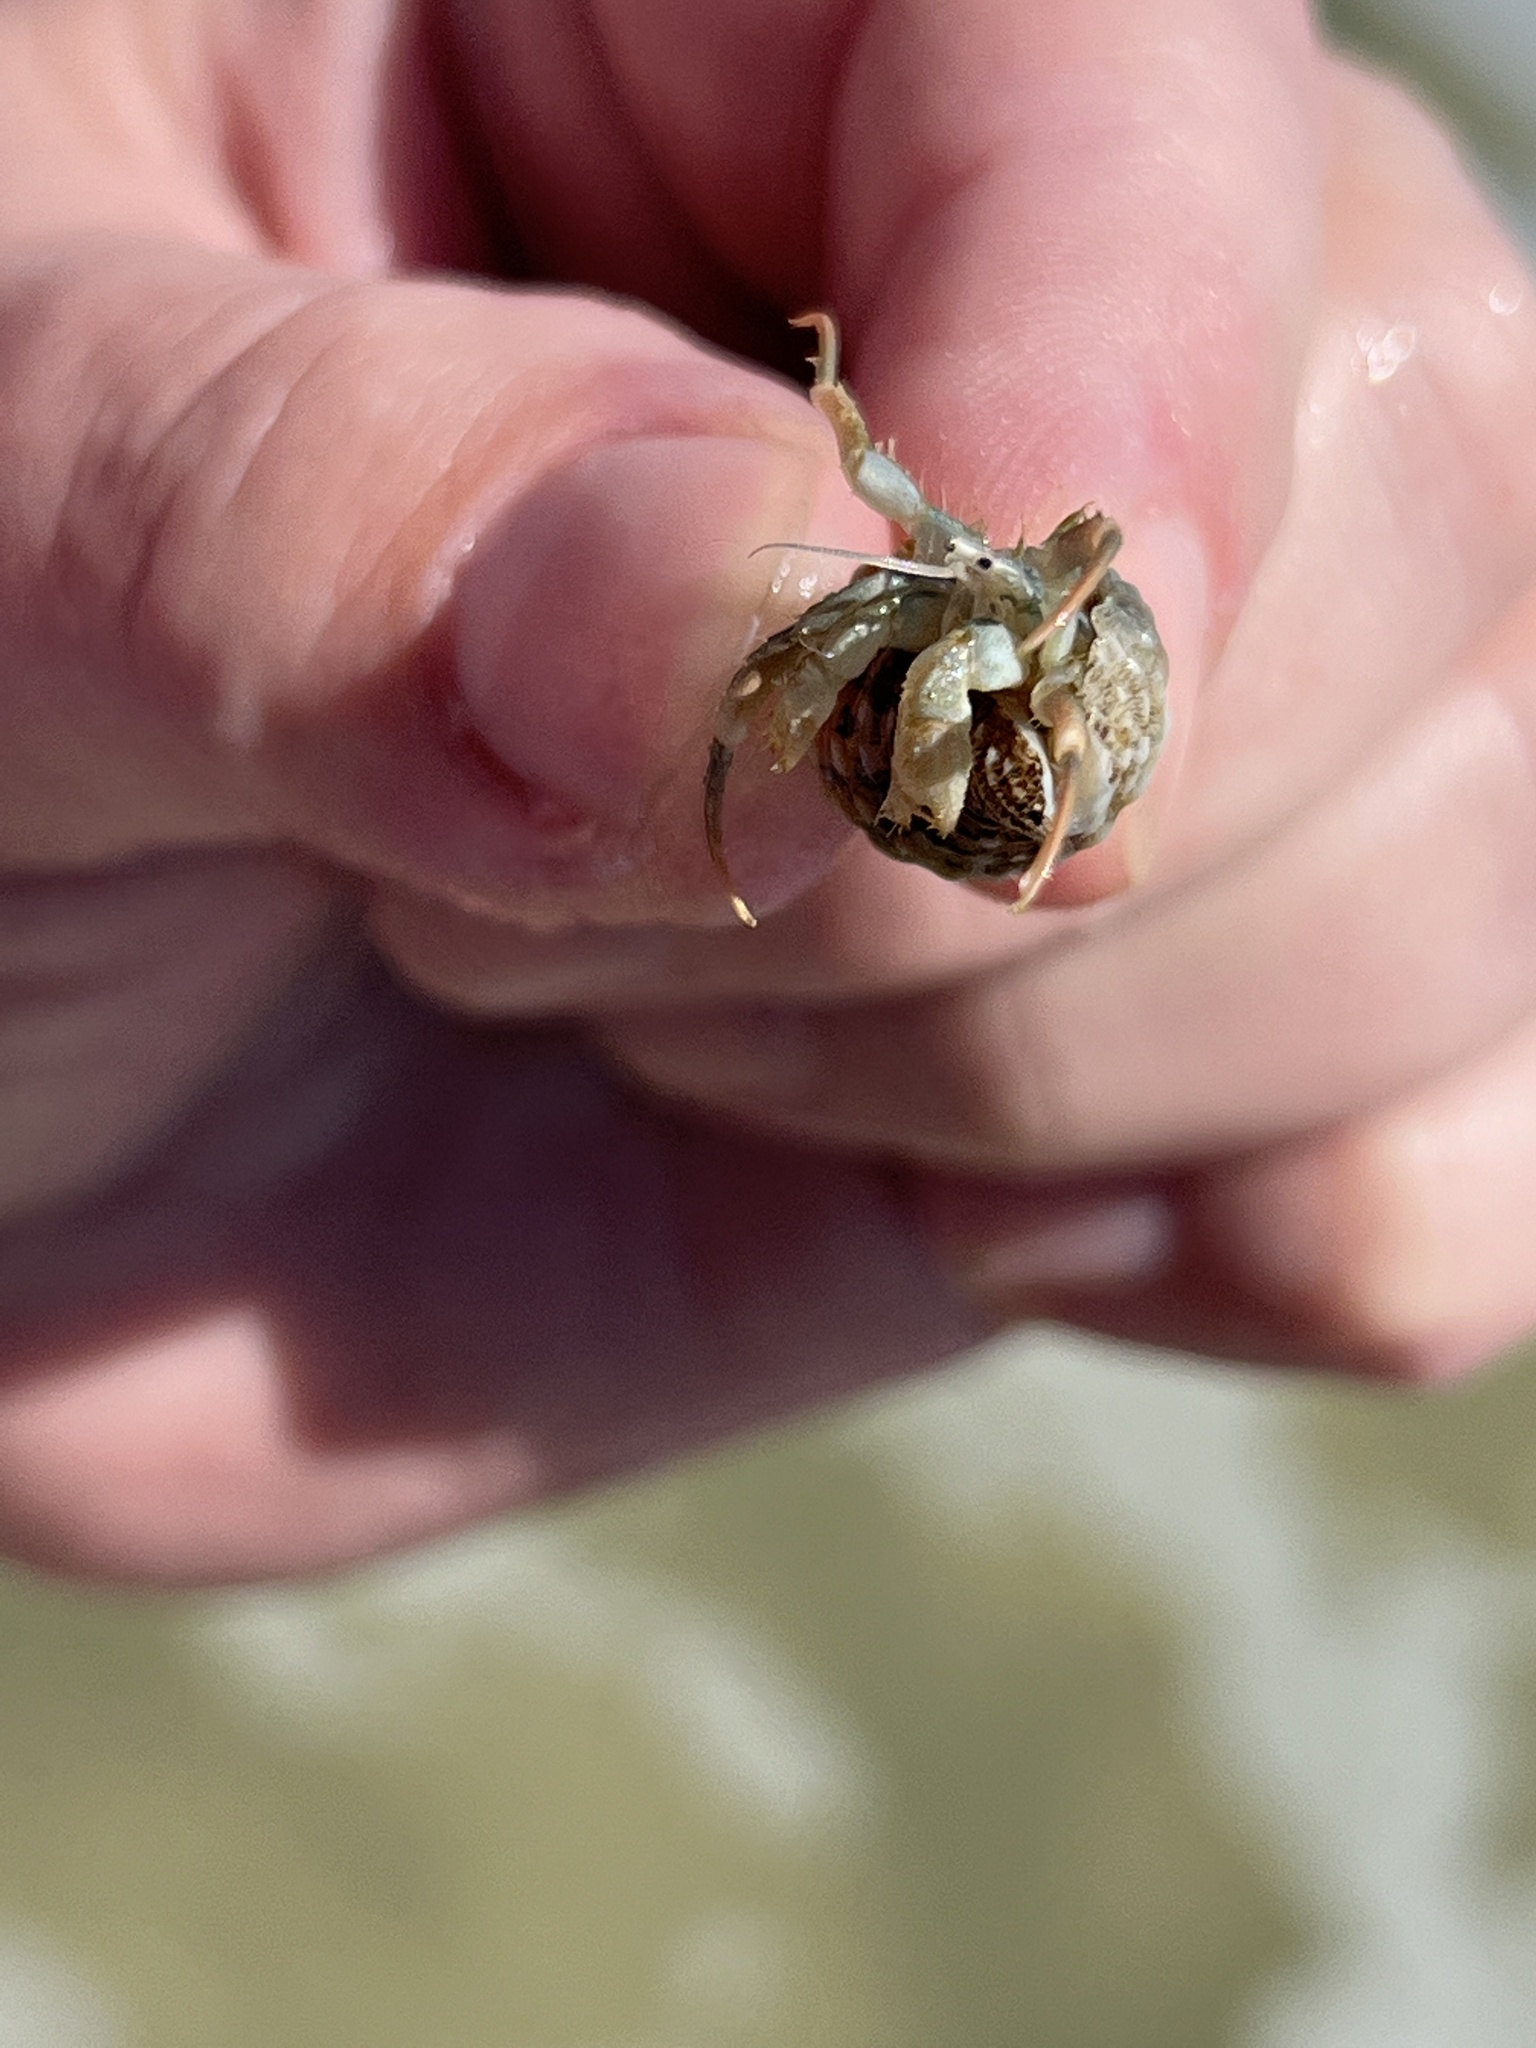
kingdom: Animalia
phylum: Arthropoda
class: Malacostraca
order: Decapoda
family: Diogenidae
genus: Isocheles
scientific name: Isocheles wurdemanni
